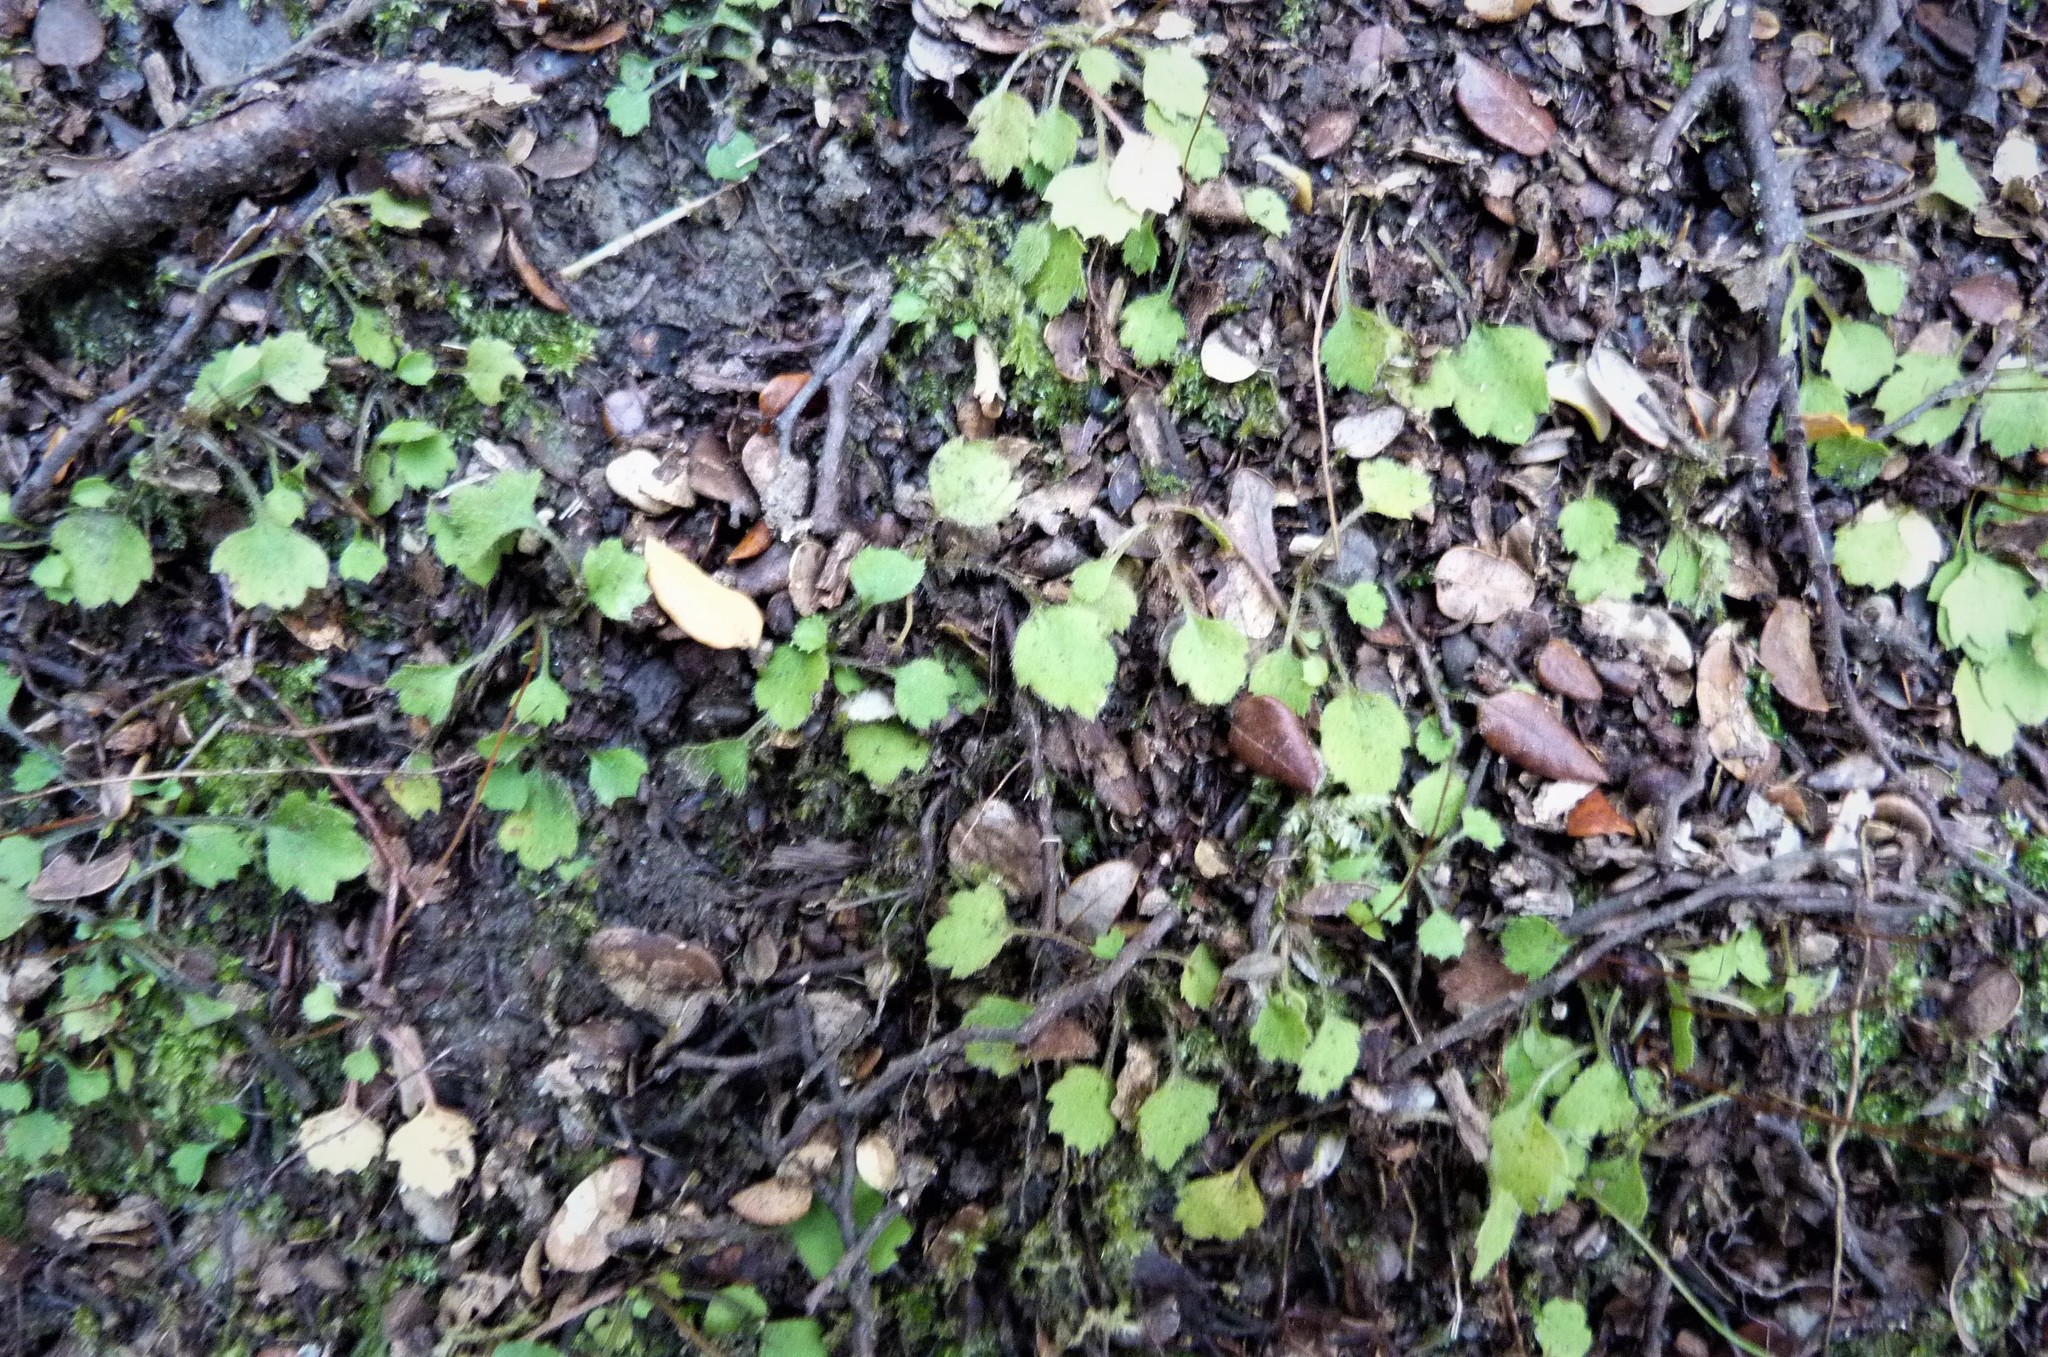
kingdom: Plantae
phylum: Tracheophyta
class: Magnoliopsida
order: Asterales
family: Asteraceae
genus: Lagenophora
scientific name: Lagenophora strangulata
